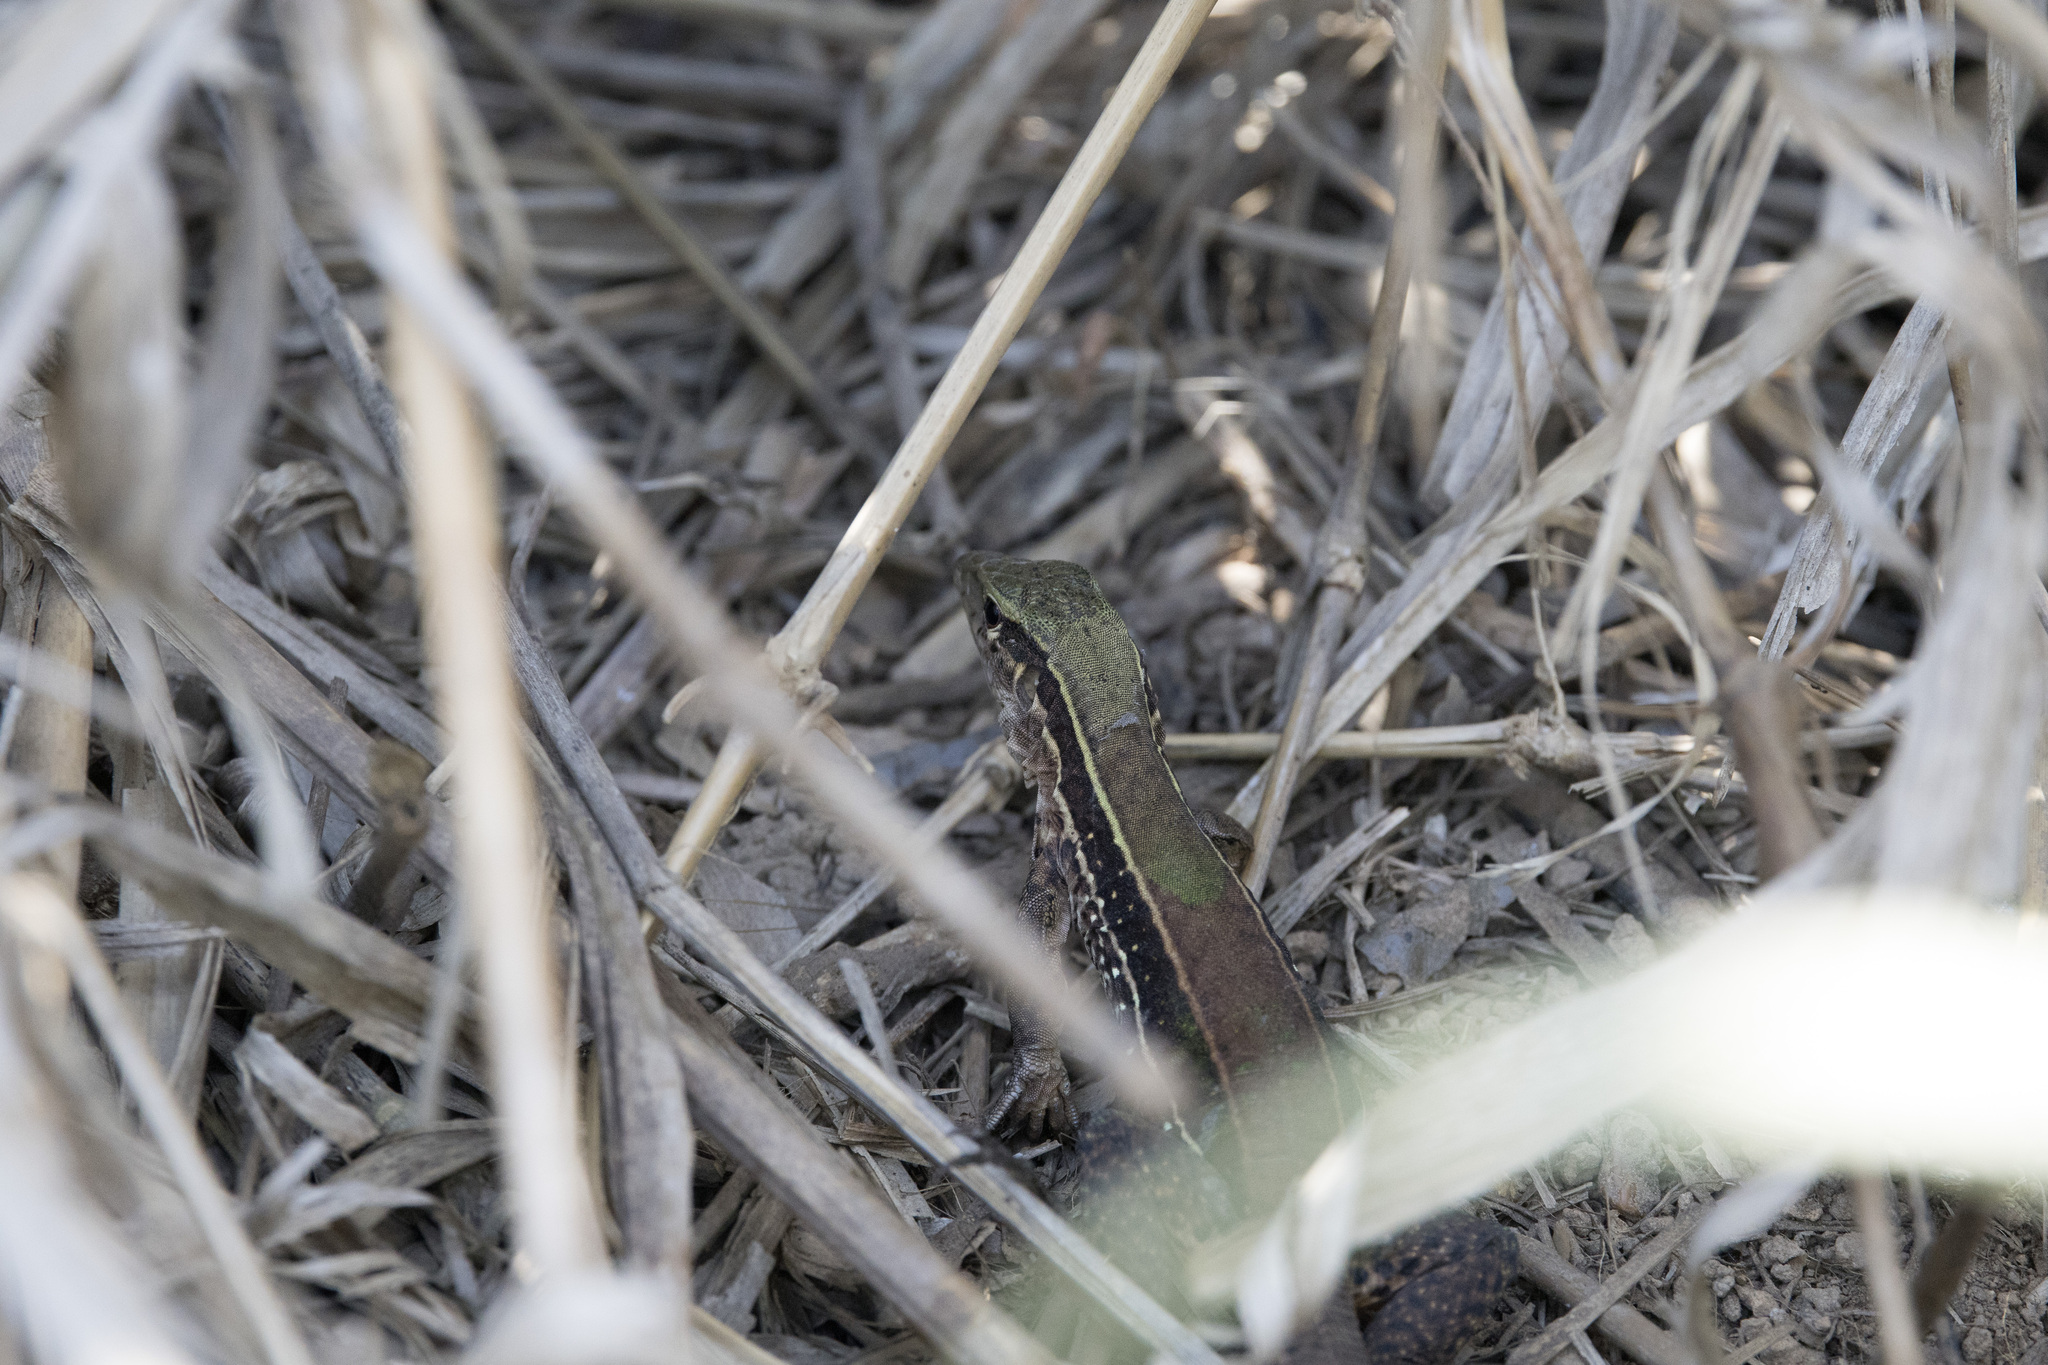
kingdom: Animalia
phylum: Chordata
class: Squamata
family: Teiidae
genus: Ameiva
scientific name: Ameiva ameiva
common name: Giant ameiva
